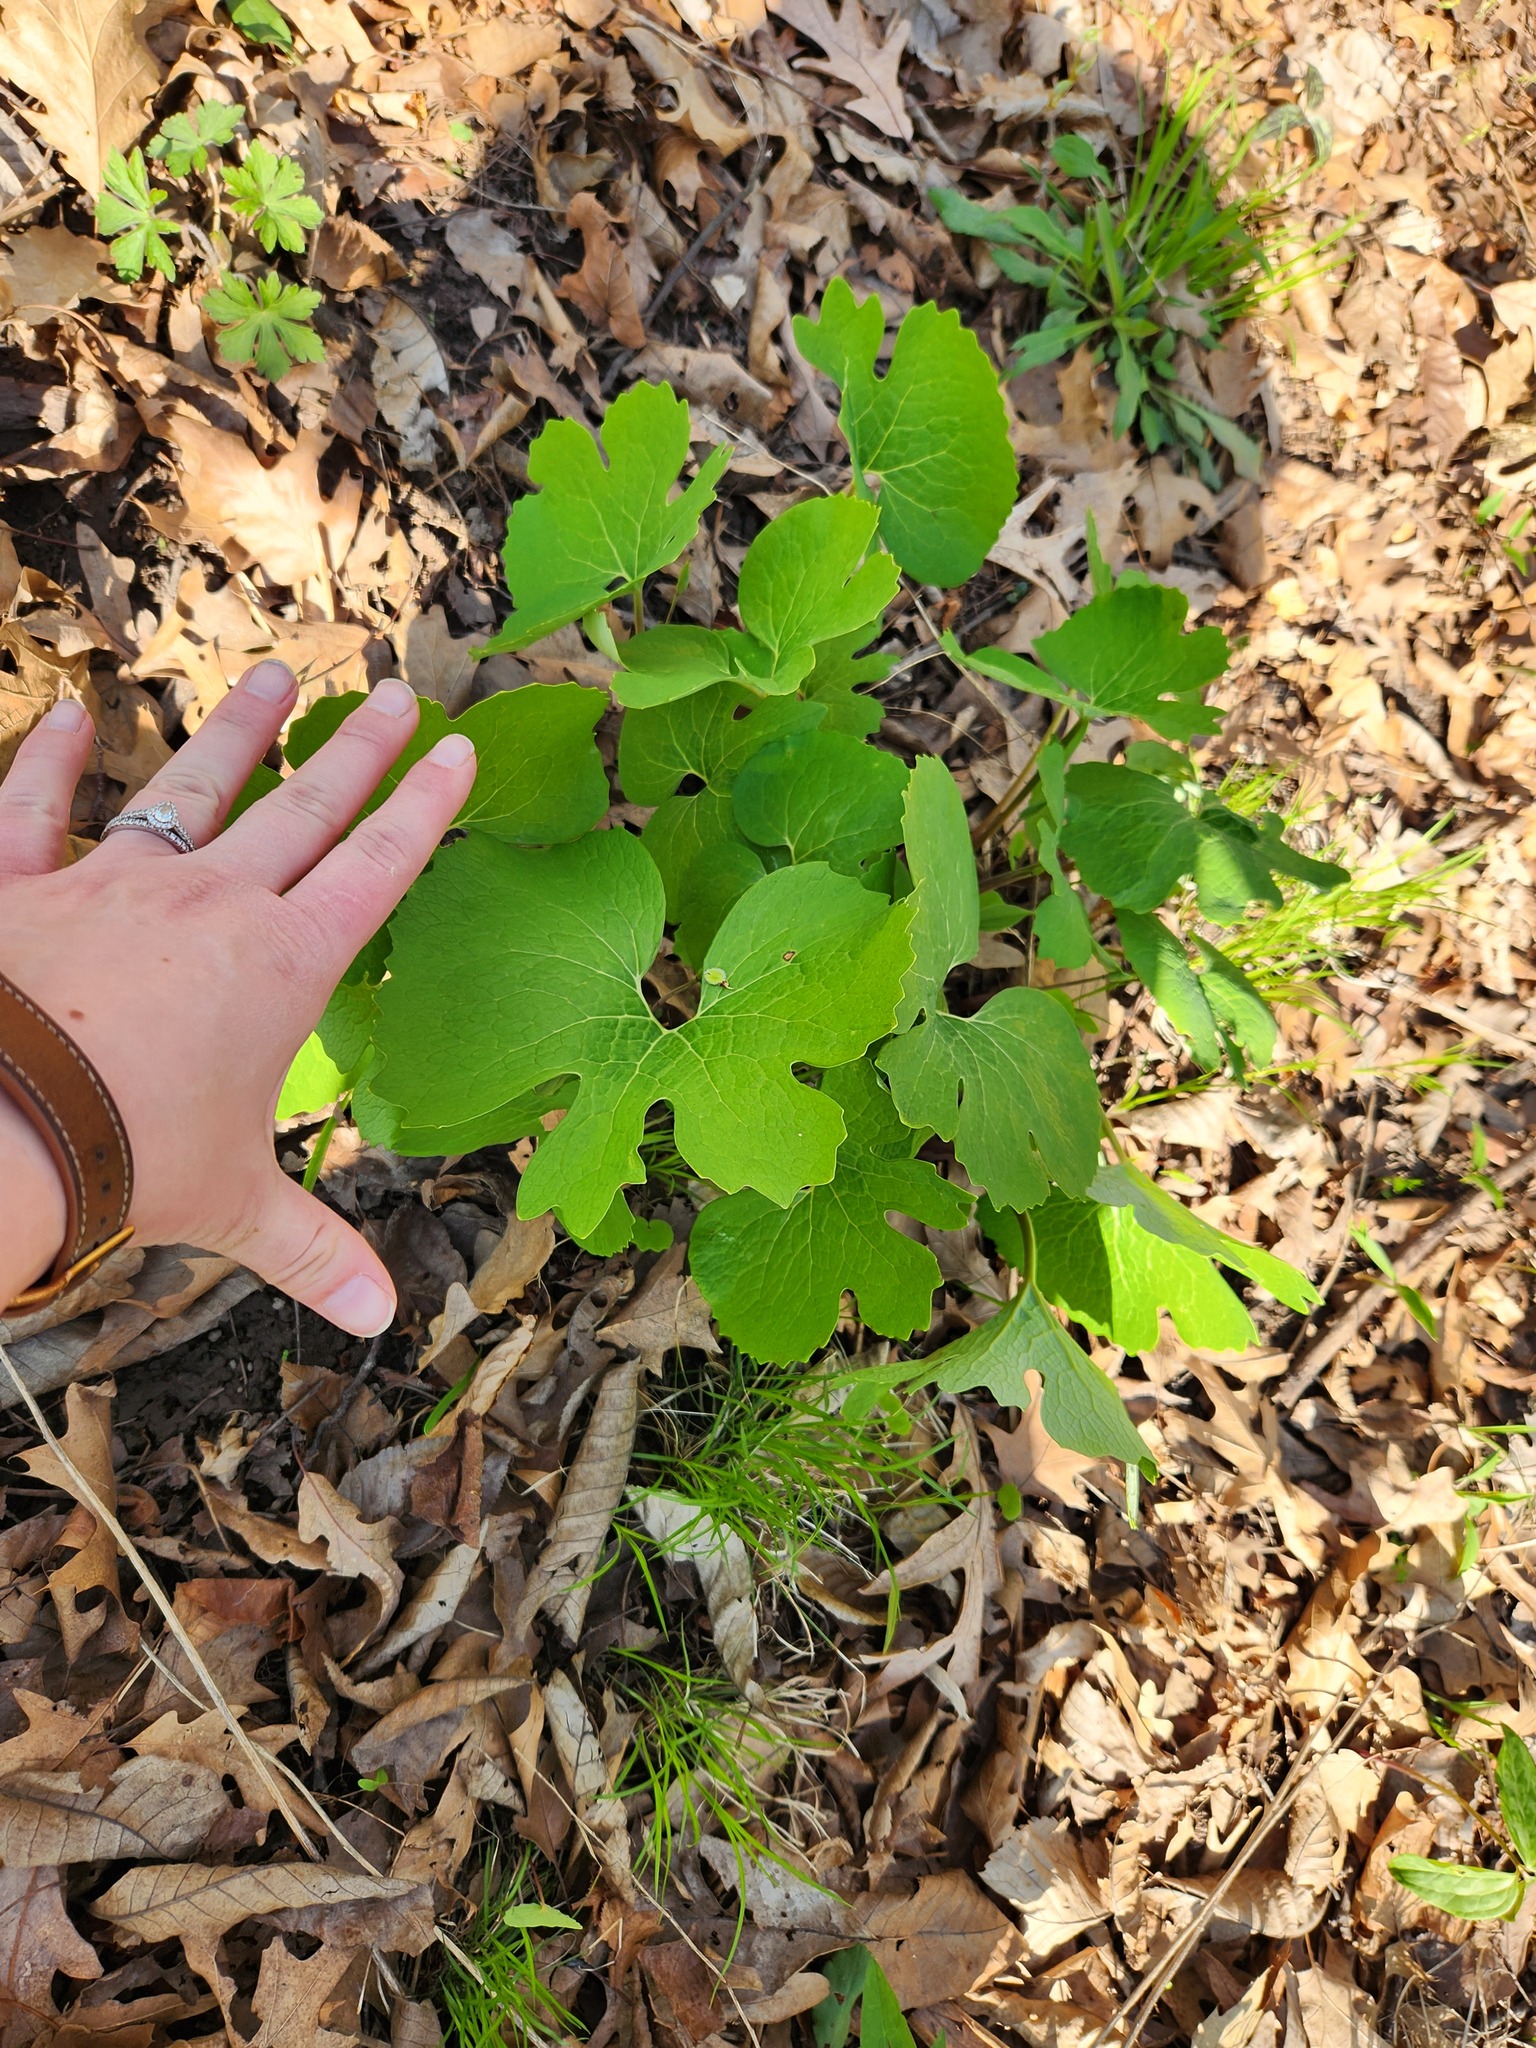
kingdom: Plantae
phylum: Tracheophyta
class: Magnoliopsida
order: Ranunculales
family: Papaveraceae
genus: Sanguinaria
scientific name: Sanguinaria canadensis
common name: Bloodroot
